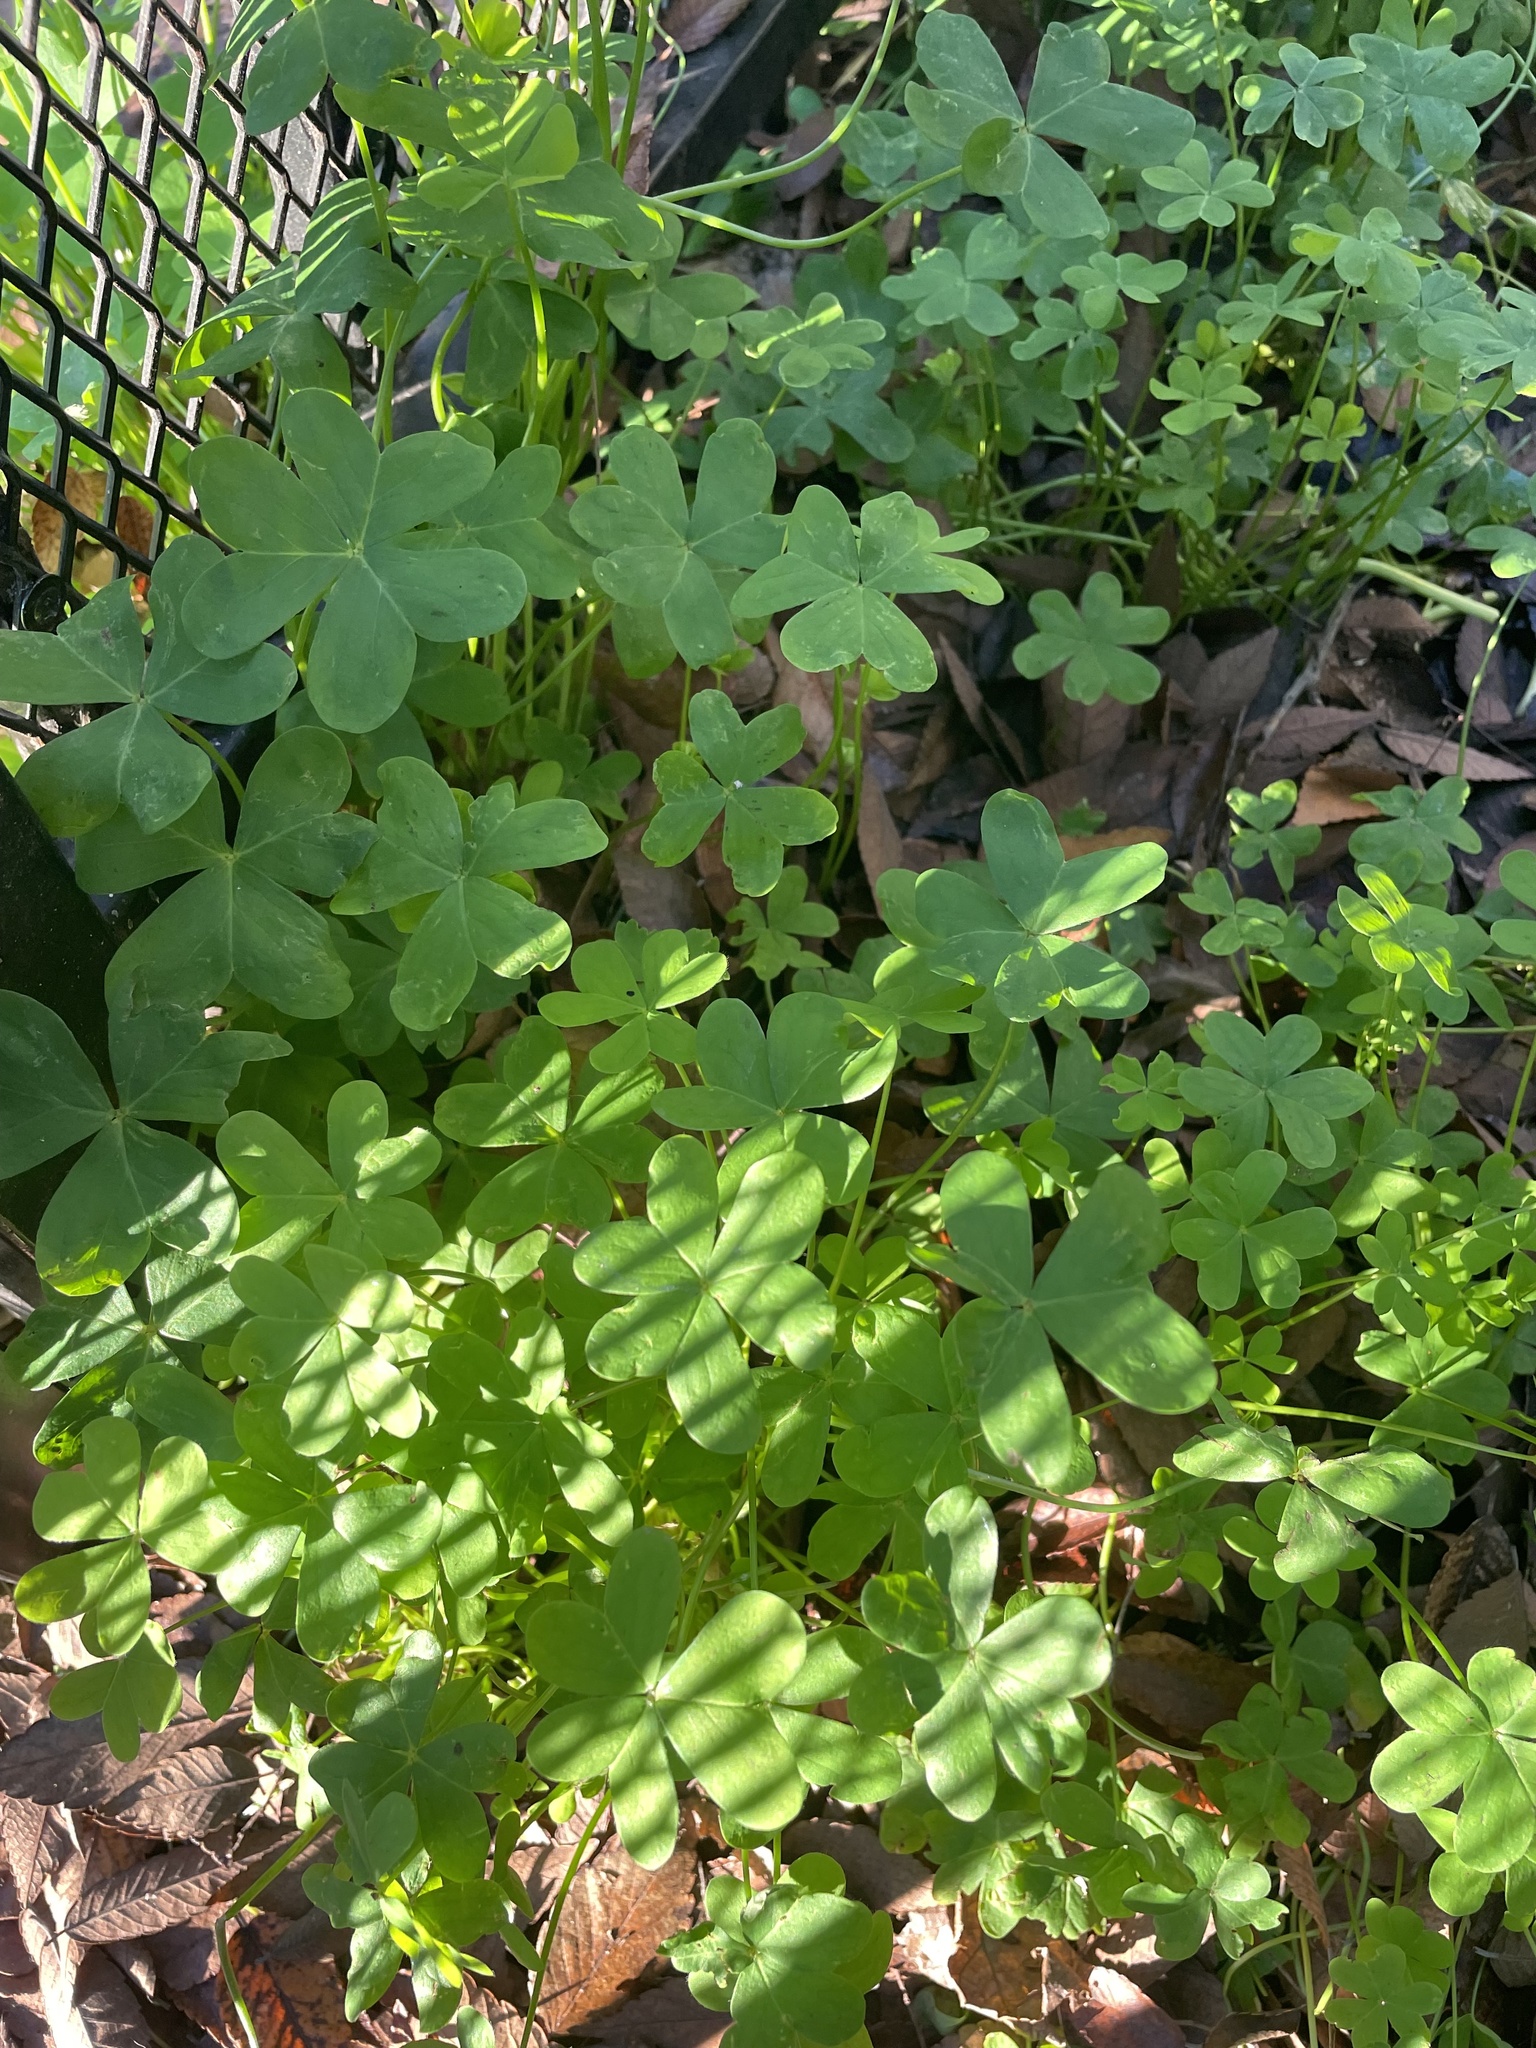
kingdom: Plantae
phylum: Tracheophyta
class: Magnoliopsida
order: Oxalidales
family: Oxalidaceae
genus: Oxalis
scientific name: Oxalis pes-caprae
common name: Bermuda-buttercup
